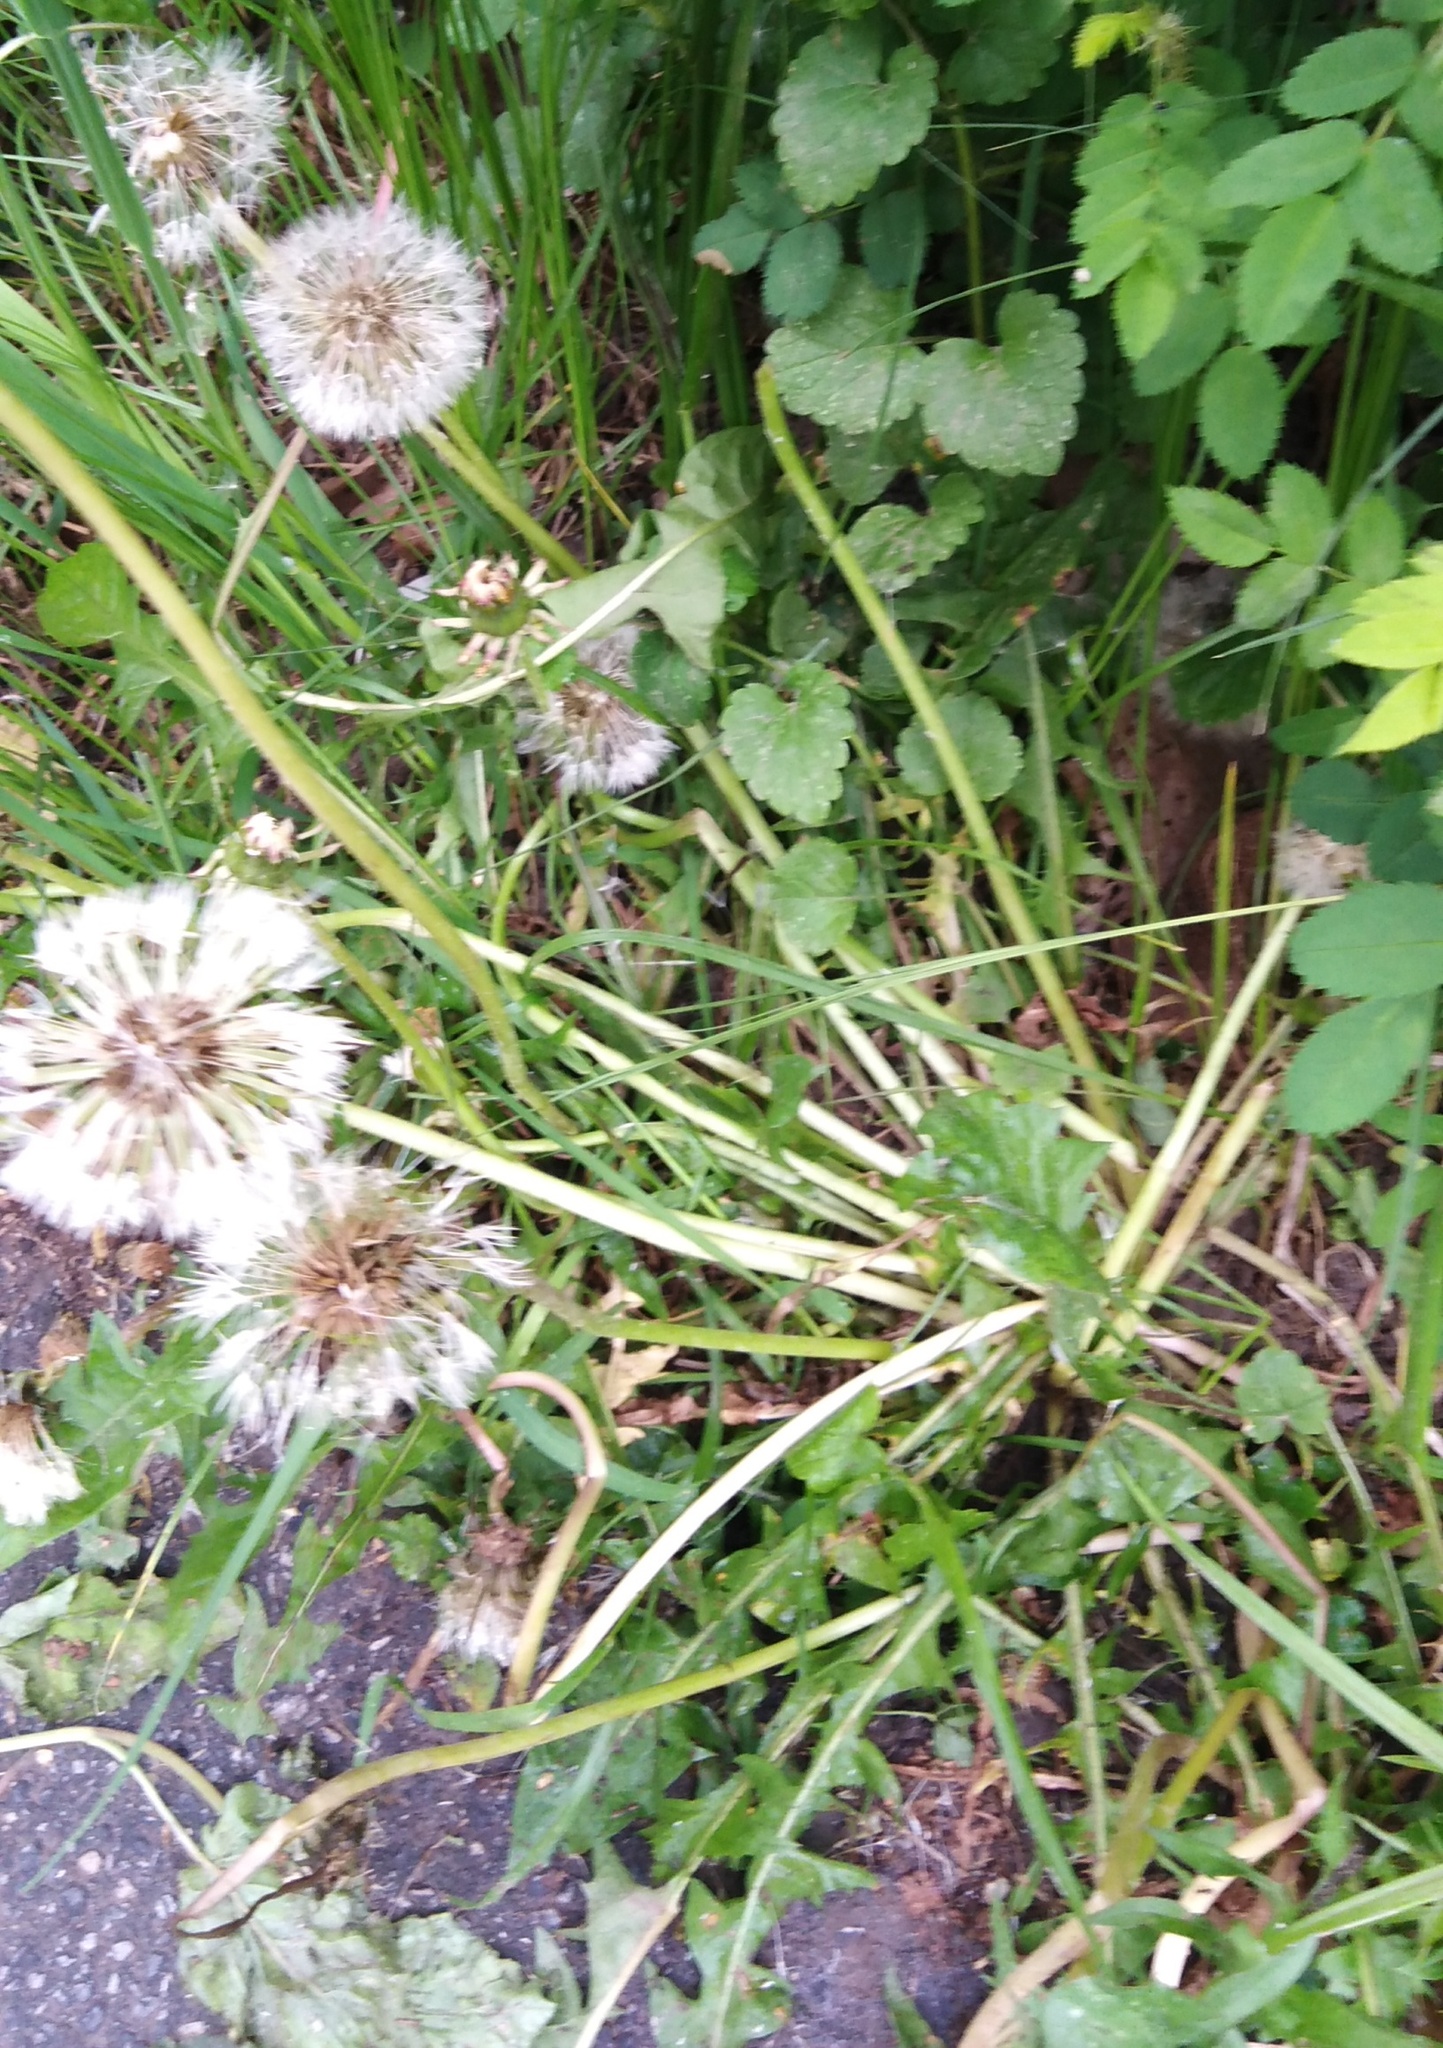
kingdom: Plantae
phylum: Tracheophyta
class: Magnoliopsida
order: Asterales
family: Asteraceae
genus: Taraxacum
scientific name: Taraxacum officinale
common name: Common dandelion
